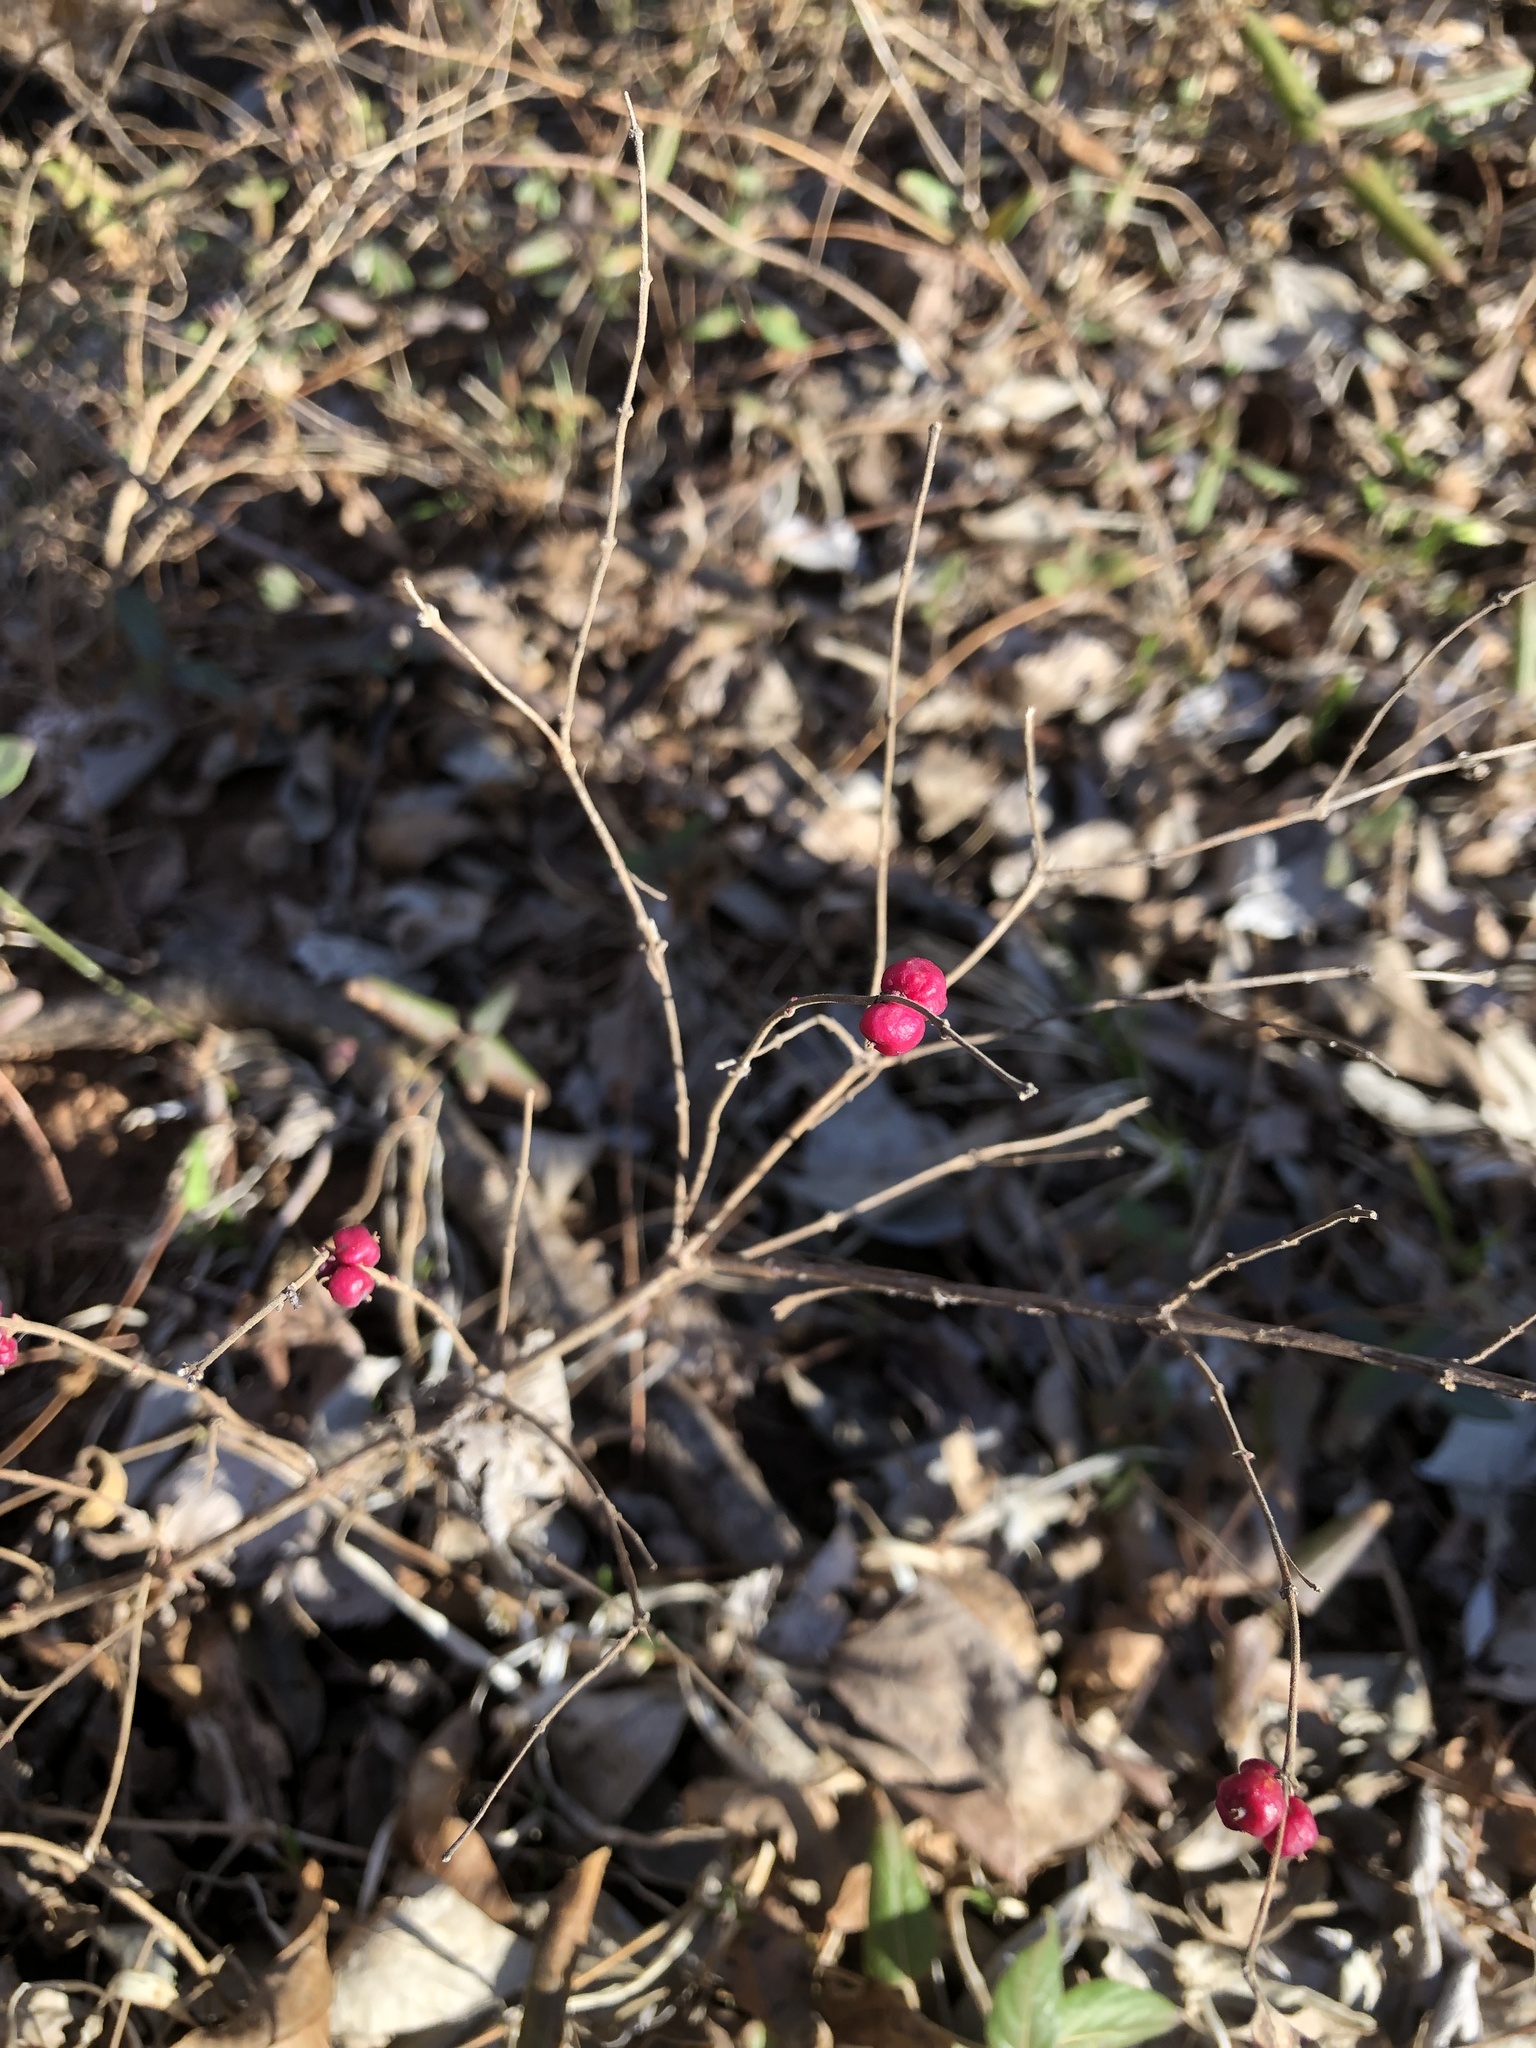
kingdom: Plantae
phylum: Tracheophyta
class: Magnoliopsida
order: Dipsacales
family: Caprifoliaceae
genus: Symphoricarpos
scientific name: Symphoricarpos orbiculatus
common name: Coralberry
